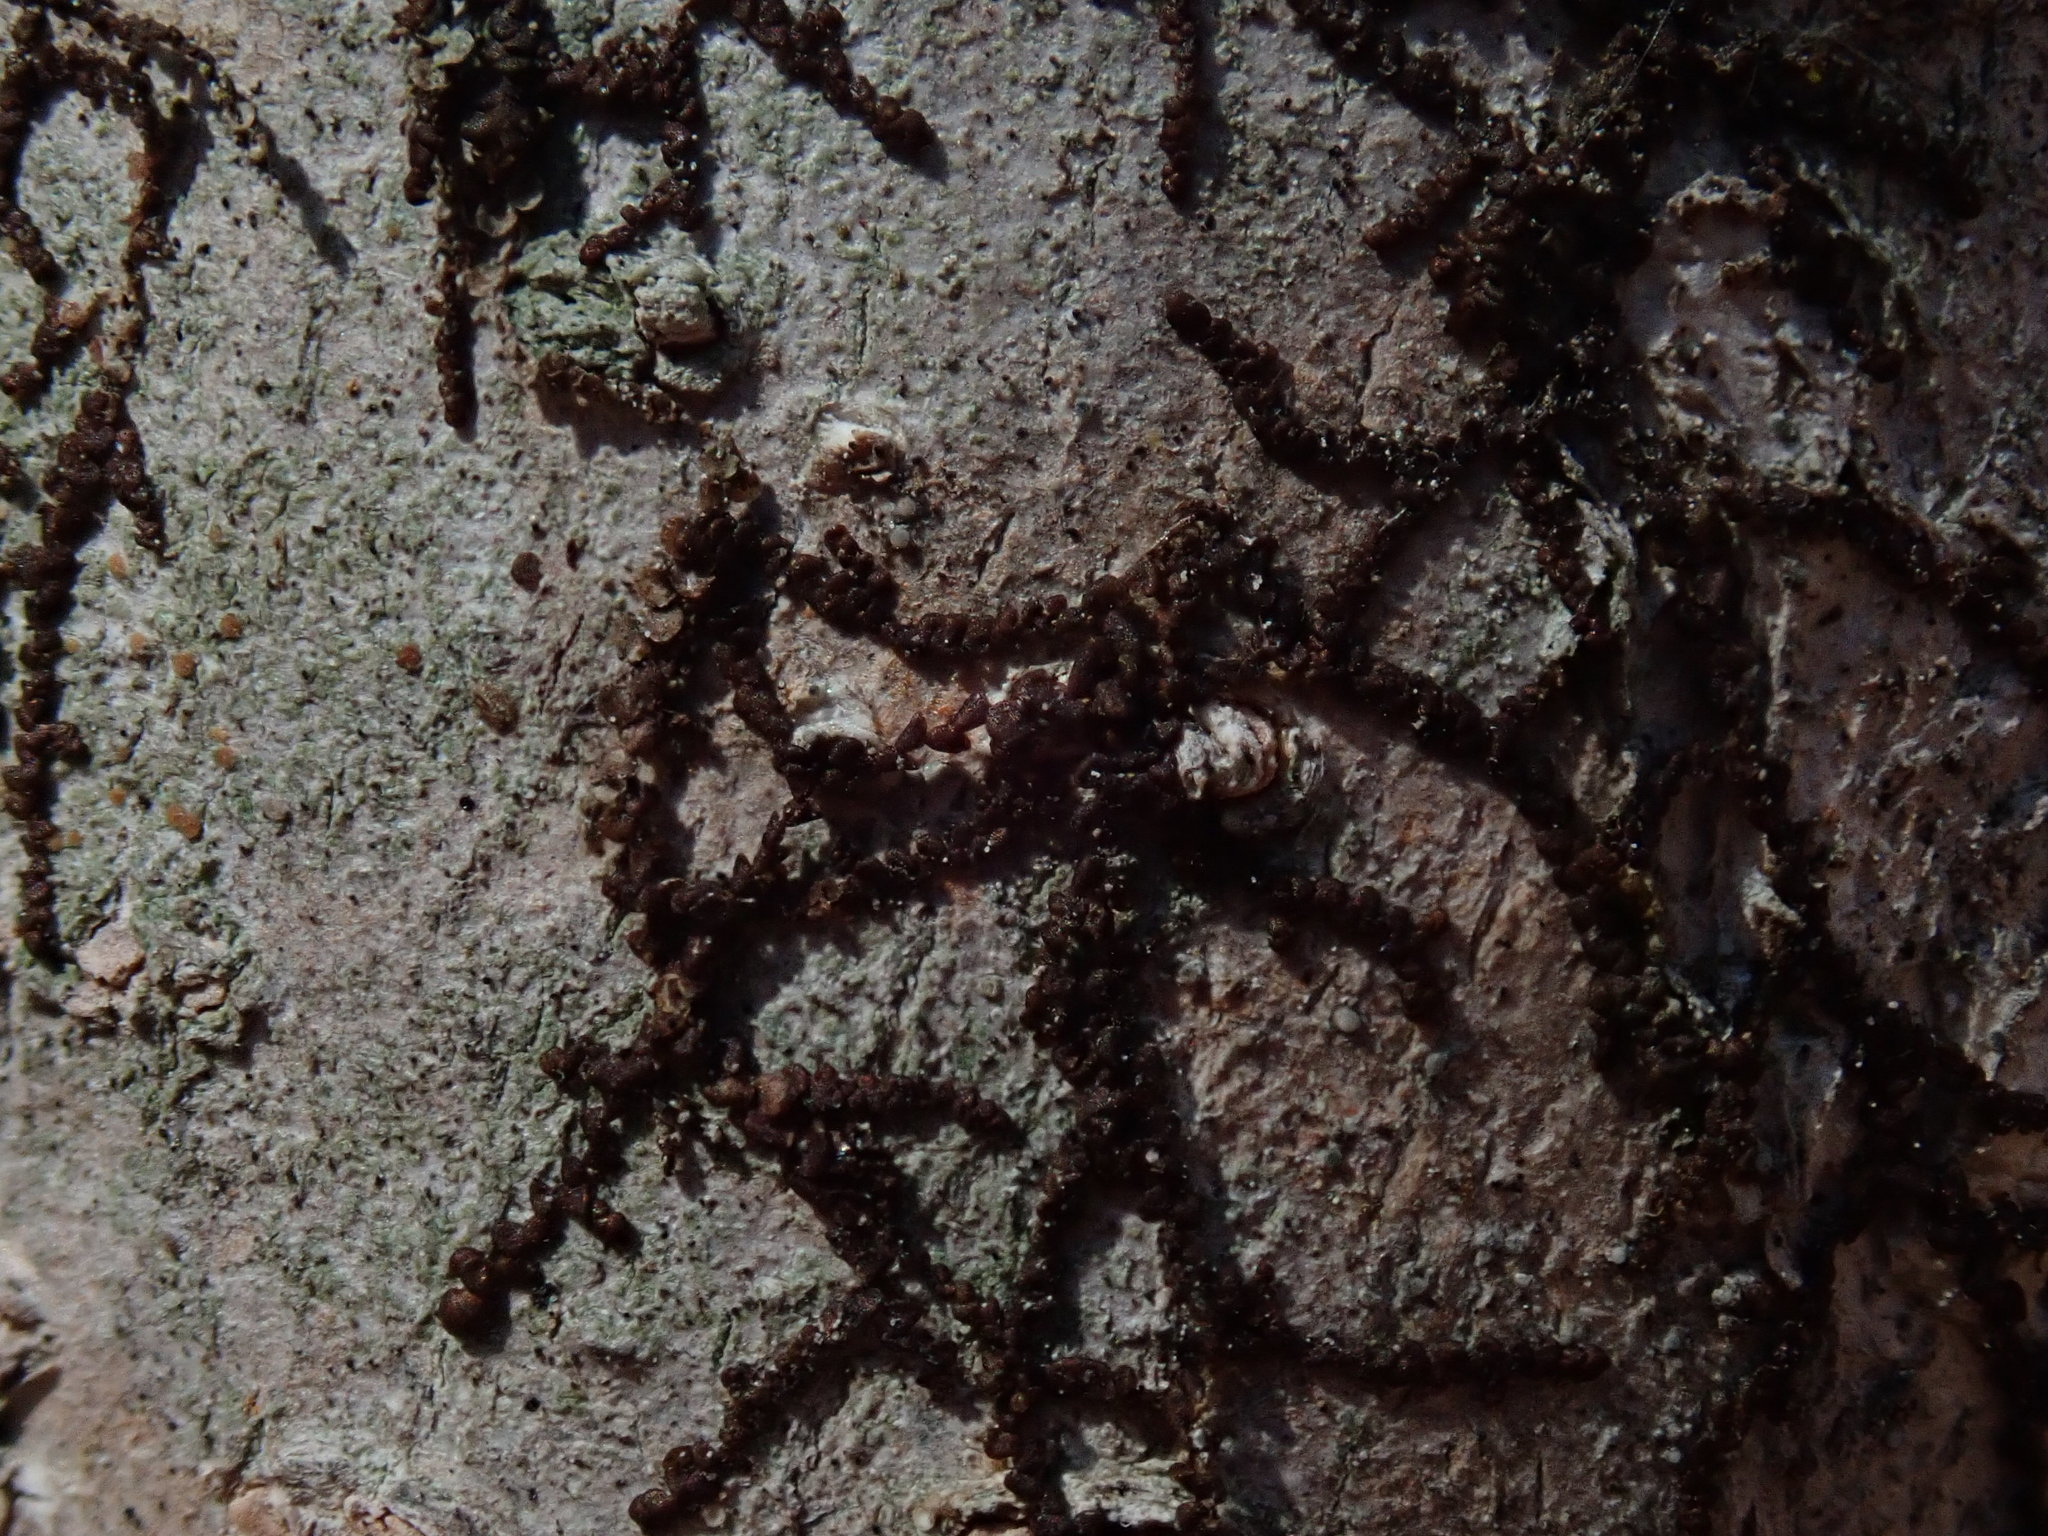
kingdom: Plantae
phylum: Marchantiophyta
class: Jungermanniopsida
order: Porellales
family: Frullaniaceae
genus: Frullania
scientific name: Frullania
